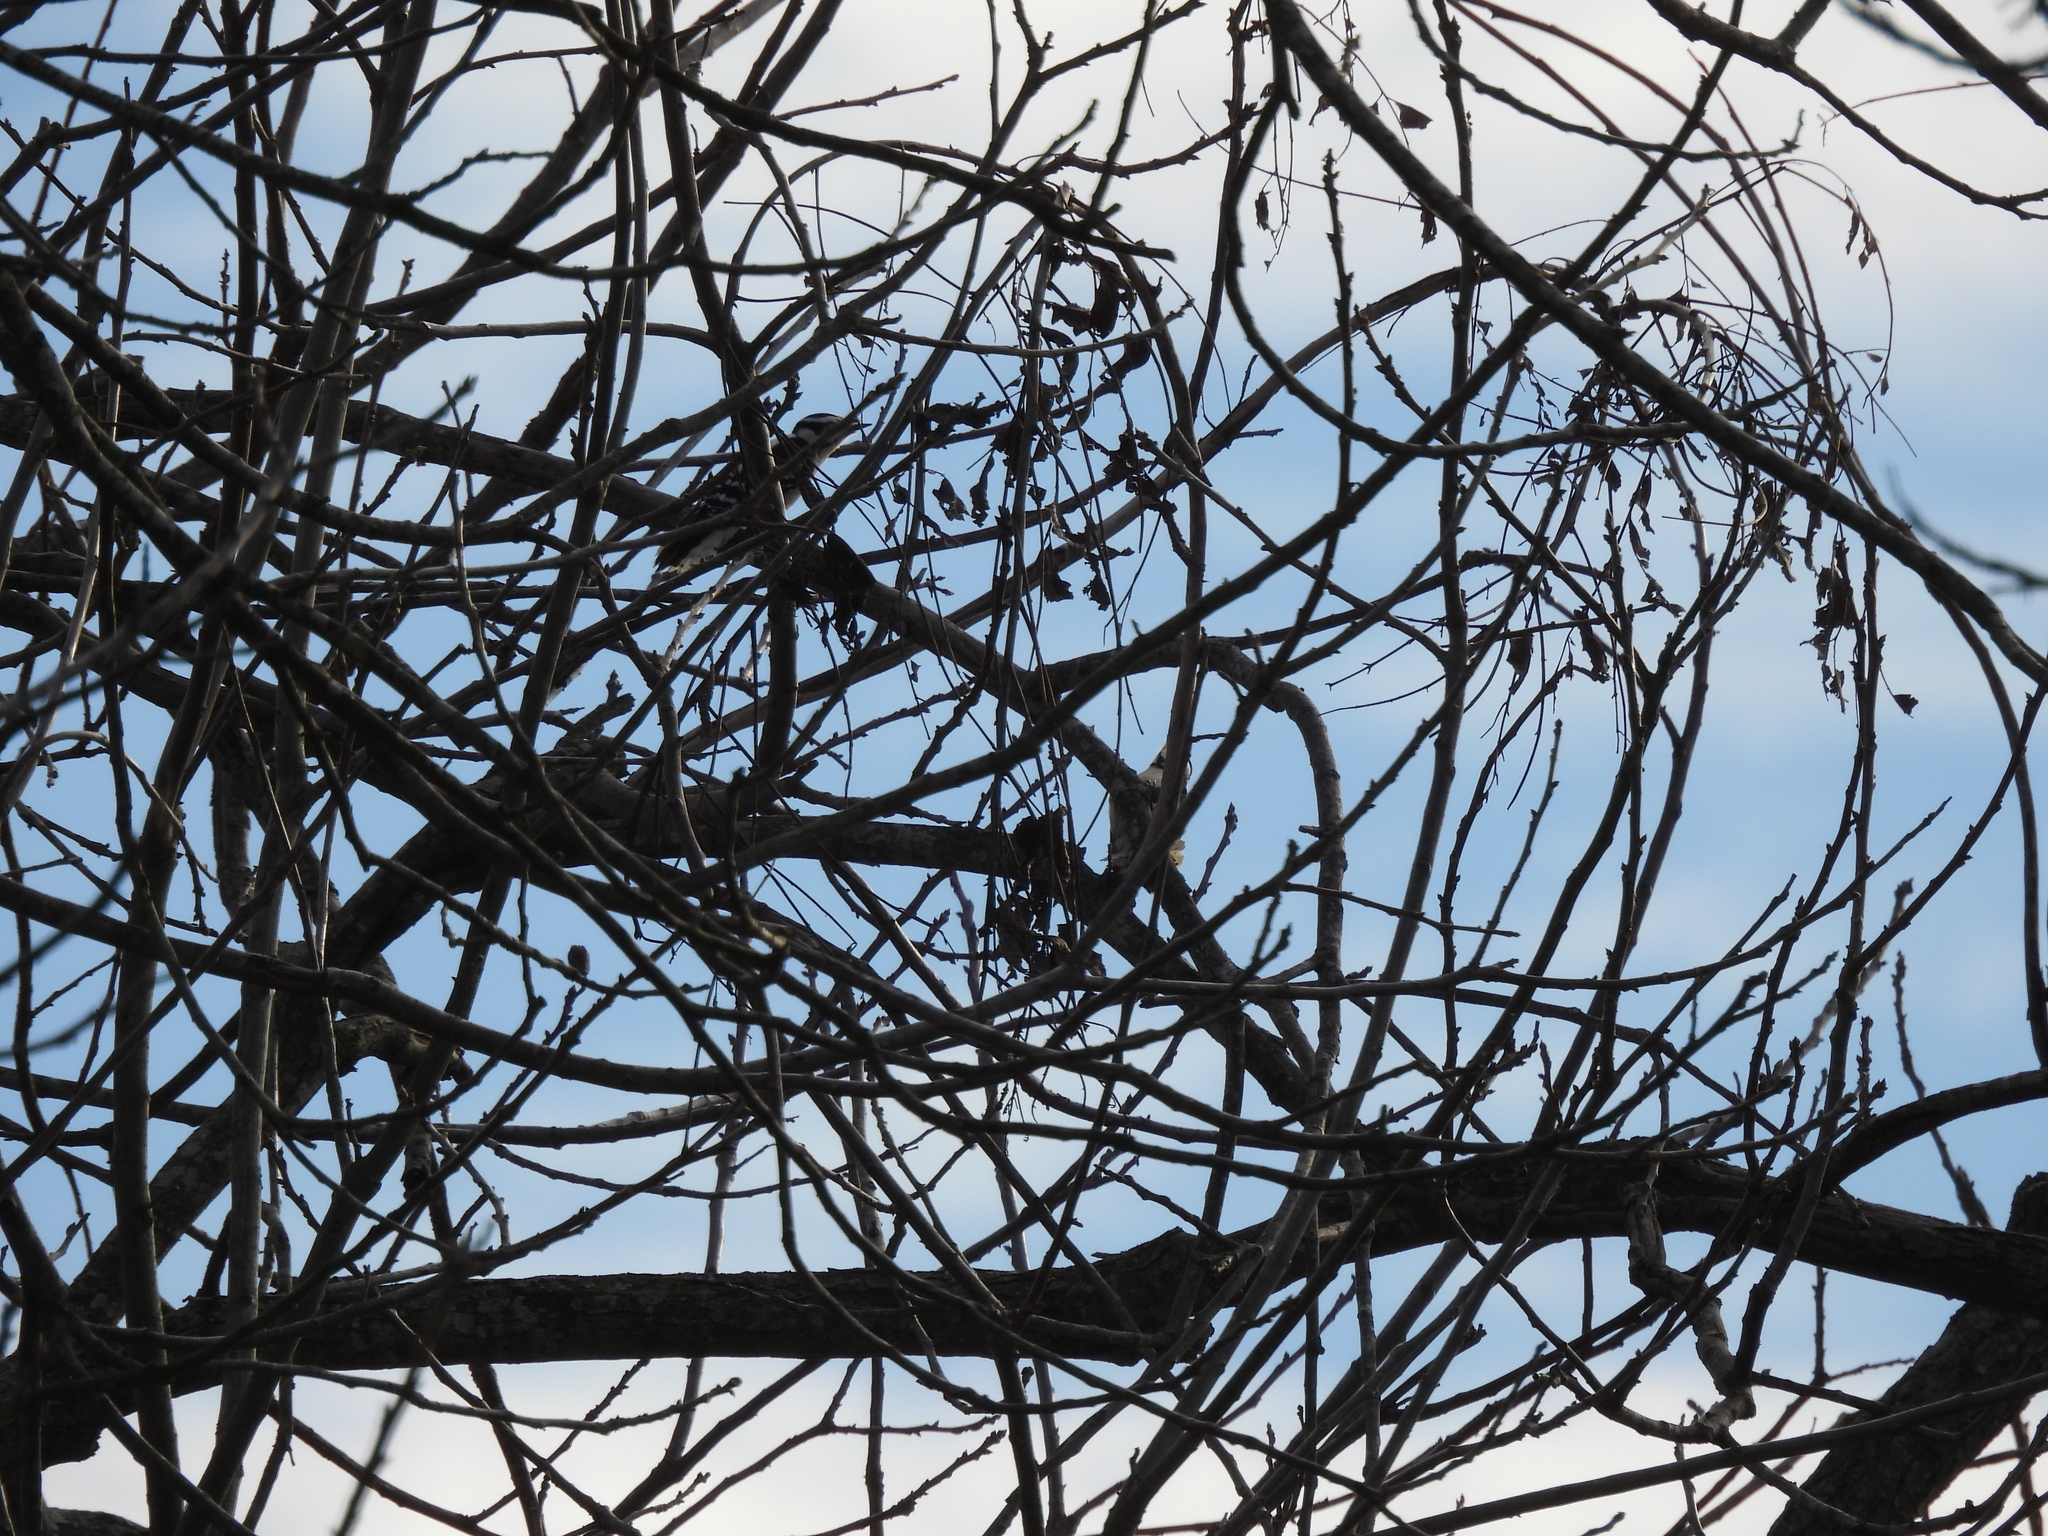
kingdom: Animalia
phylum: Chordata
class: Aves
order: Piciformes
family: Picidae
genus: Dryobates
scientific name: Dryobates pubescens
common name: Downy woodpecker
